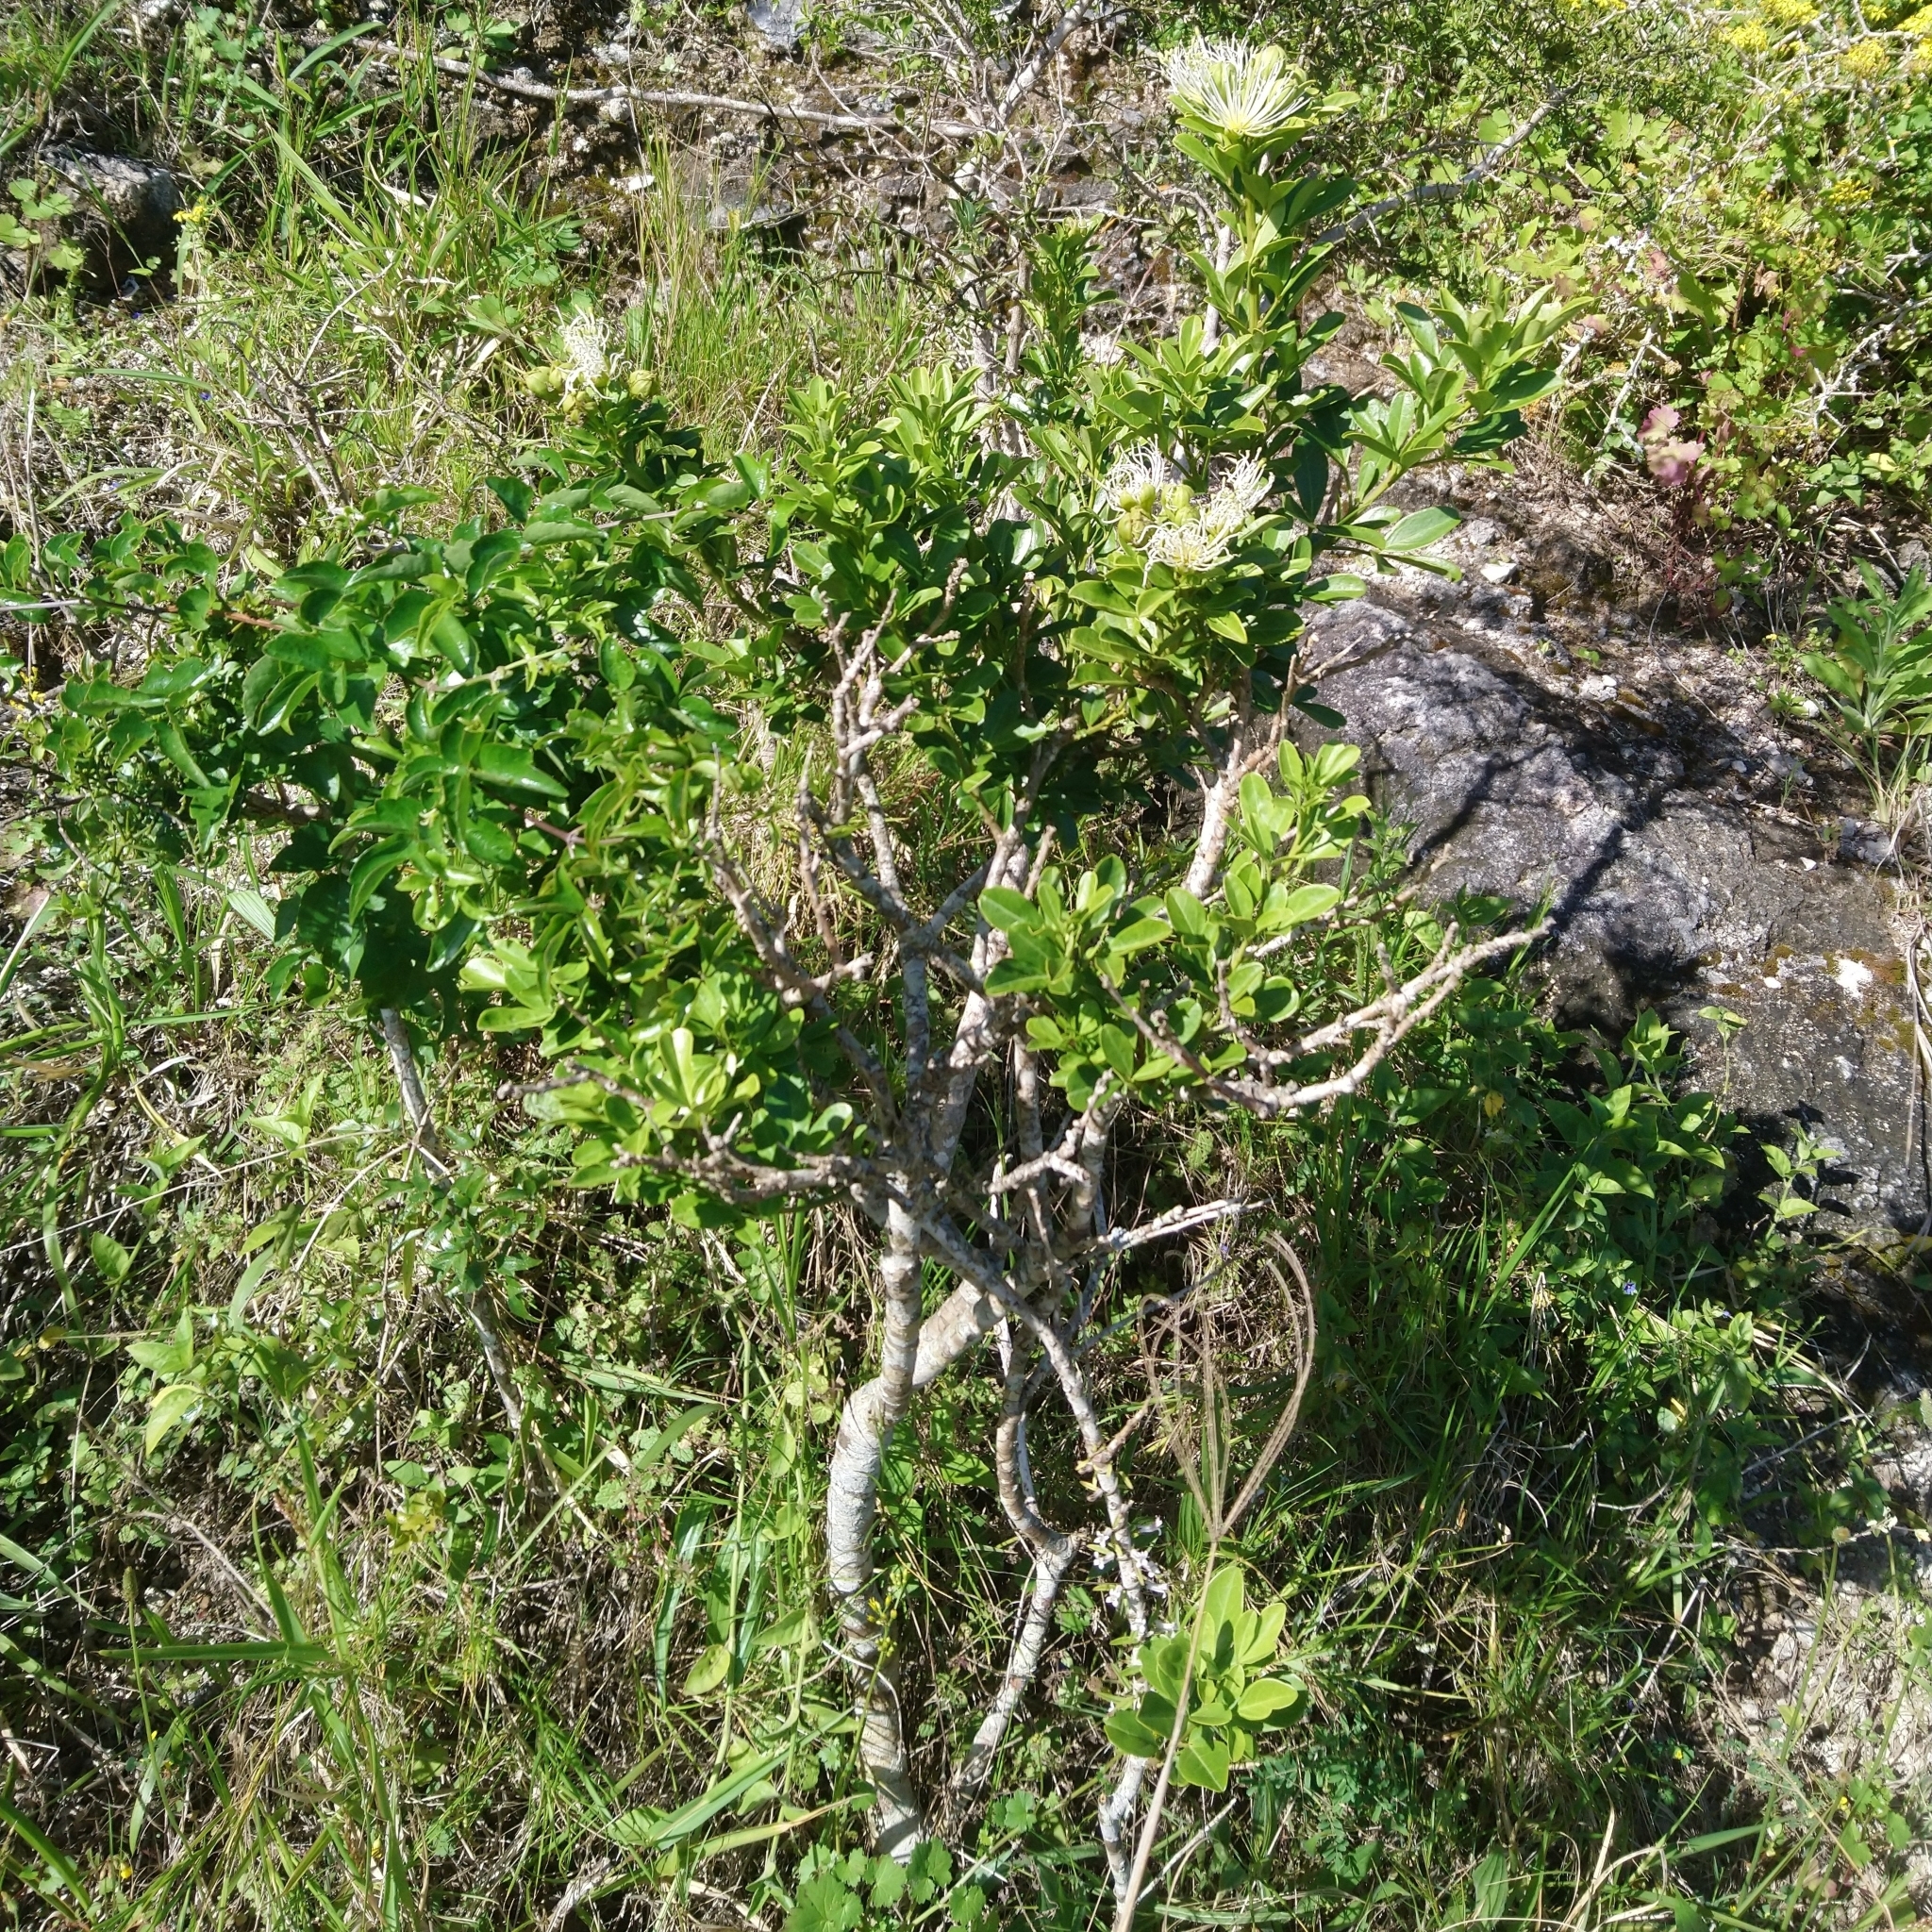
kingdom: Plantae
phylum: Tracheophyta
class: Magnoliopsida
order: Brassicales
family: Capparaceae
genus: Maerua
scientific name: Maerua cafra
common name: Bush maerua
